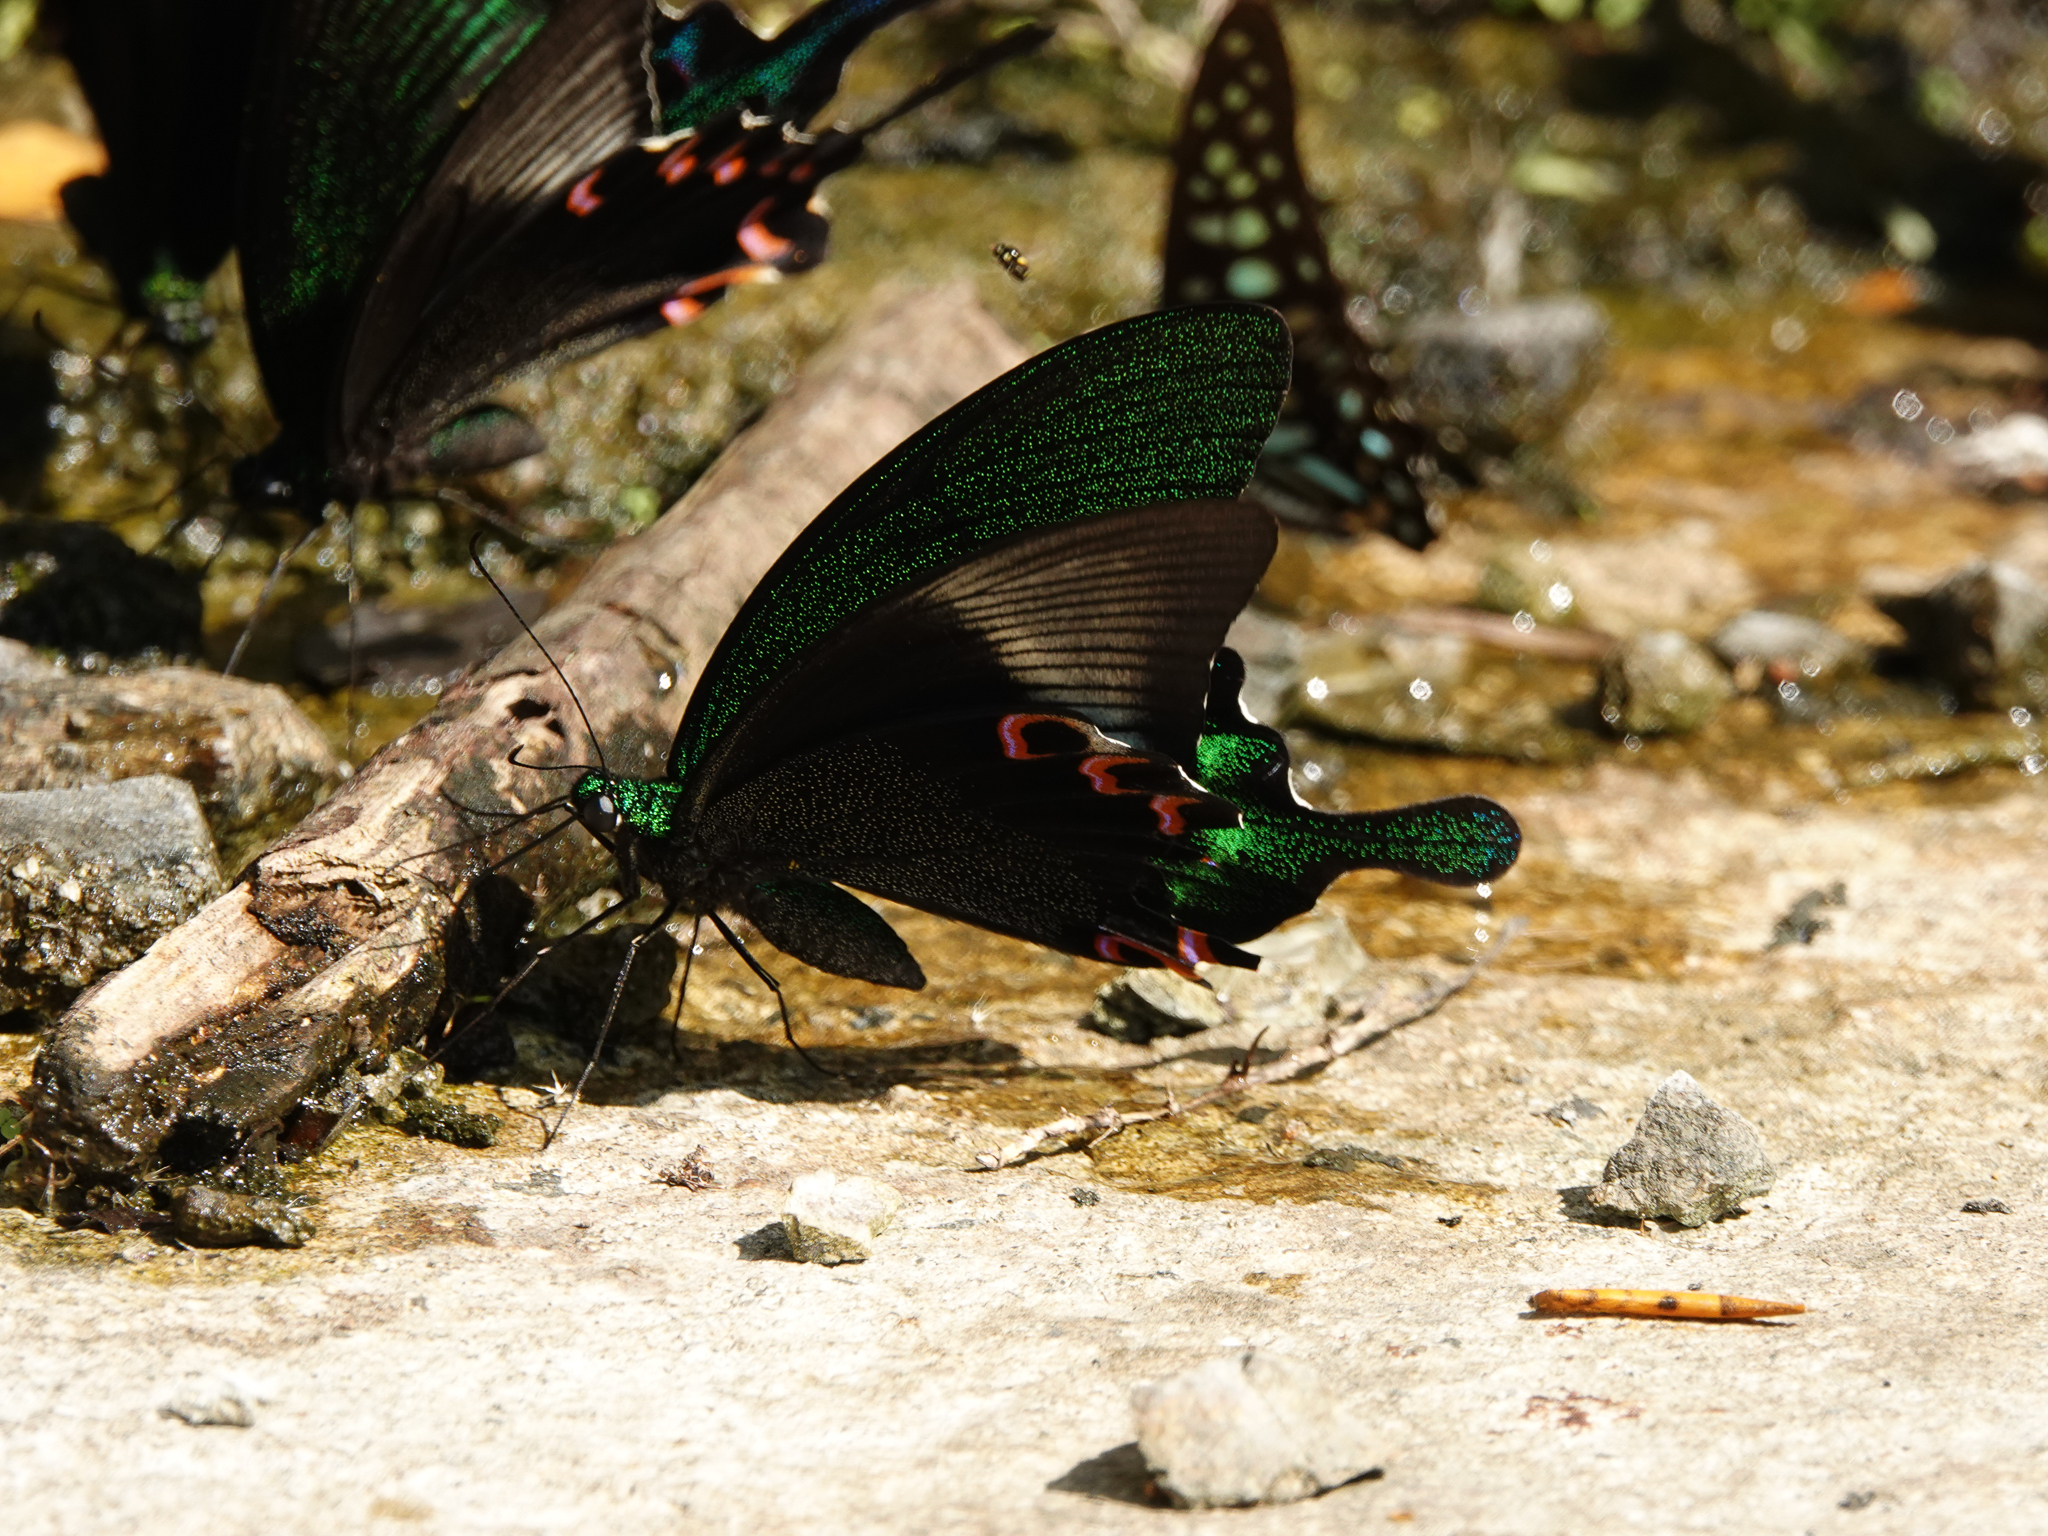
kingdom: Animalia
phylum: Arthropoda
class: Insecta
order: Lepidoptera
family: Papilionidae
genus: Papilio
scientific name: Papilio paris
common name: Paris peacock
